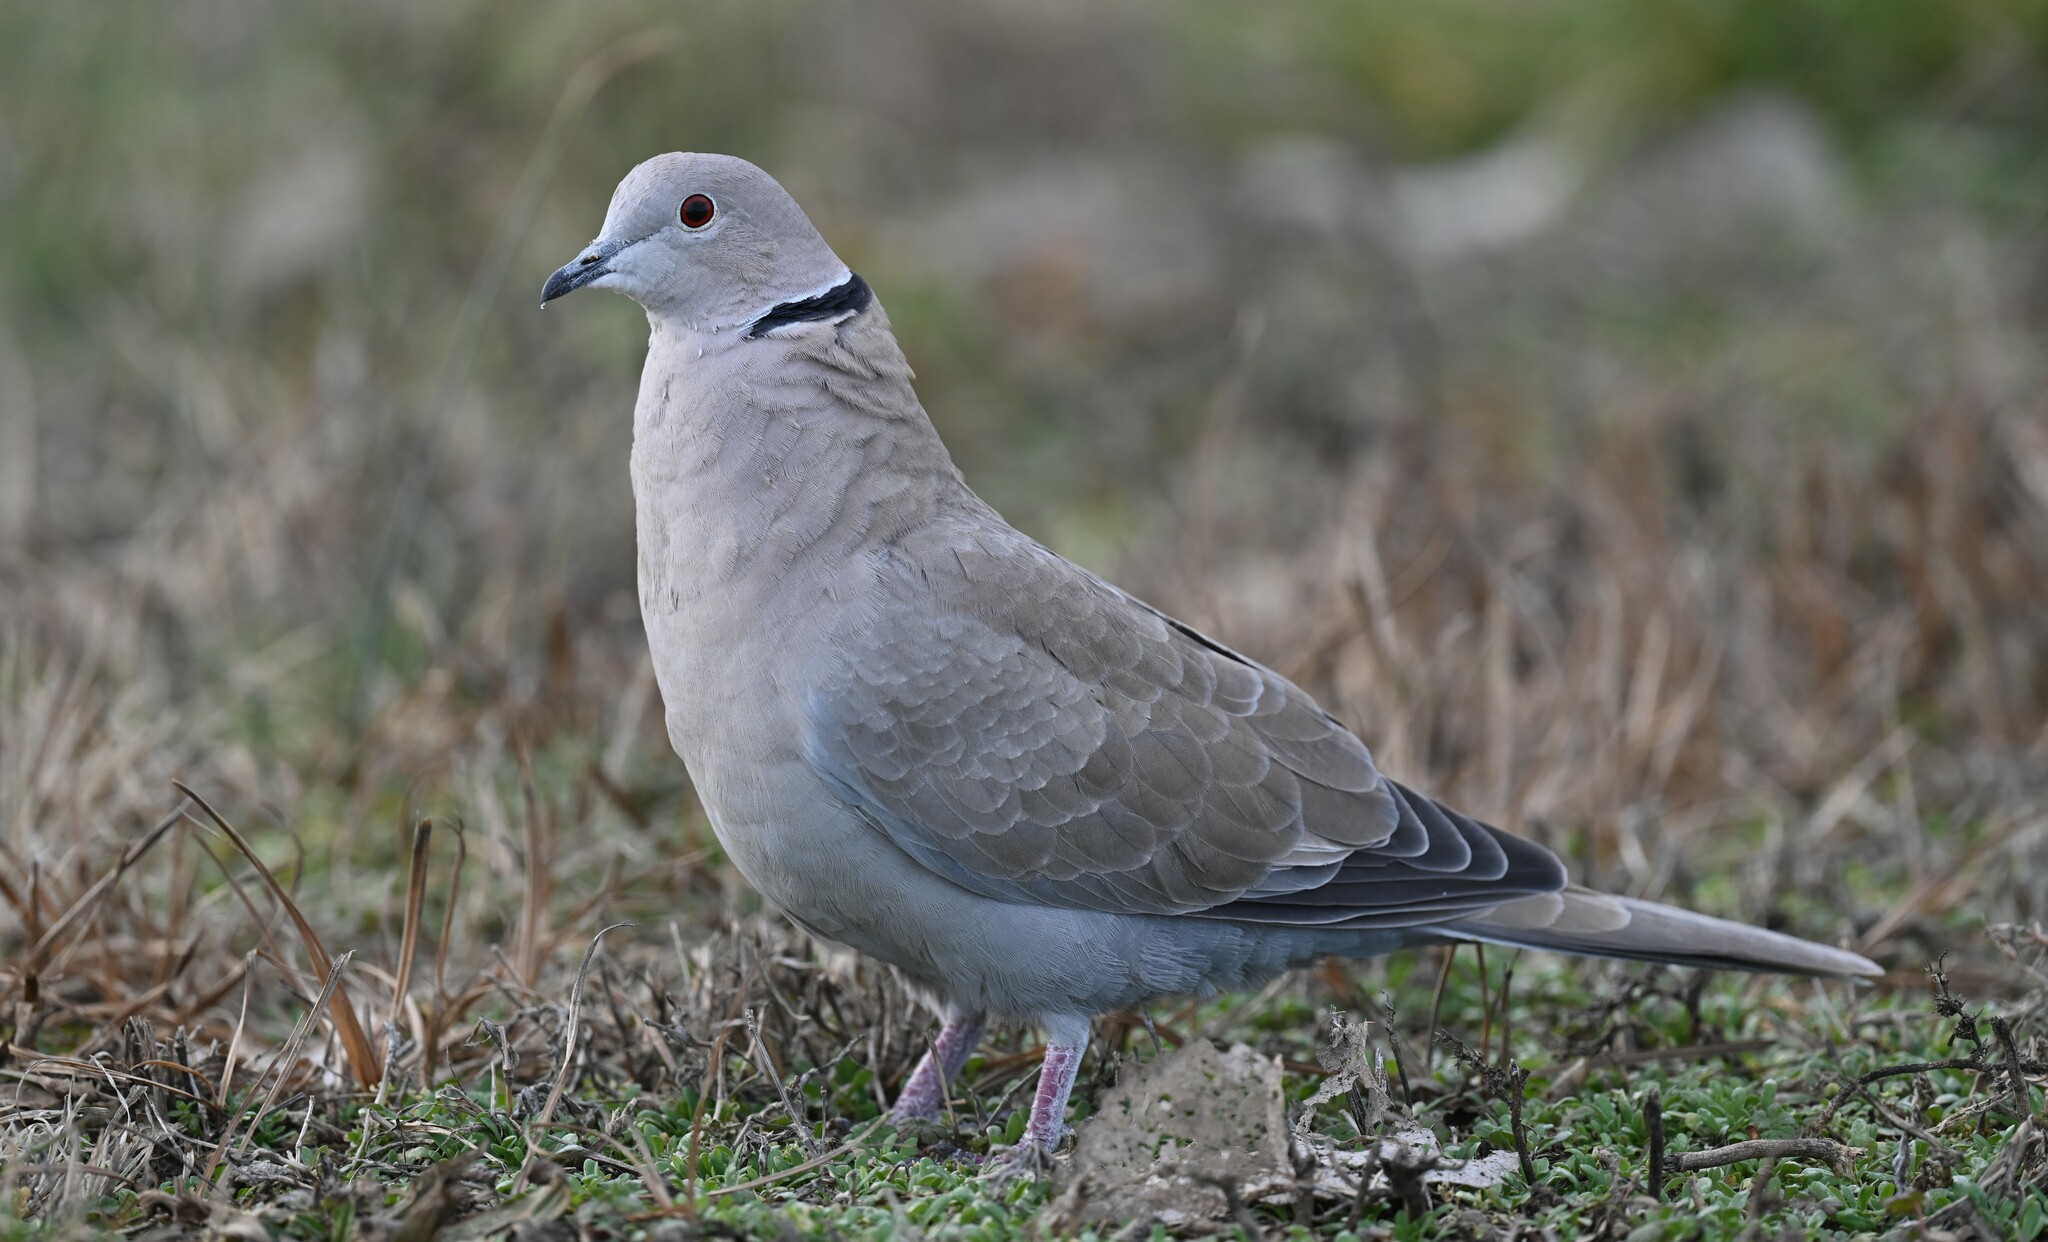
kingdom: Animalia
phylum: Chordata
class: Aves
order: Columbiformes
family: Columbidae
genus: Streptopelia
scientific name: Streptopelia decaocto
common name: Eurasian collared dove
